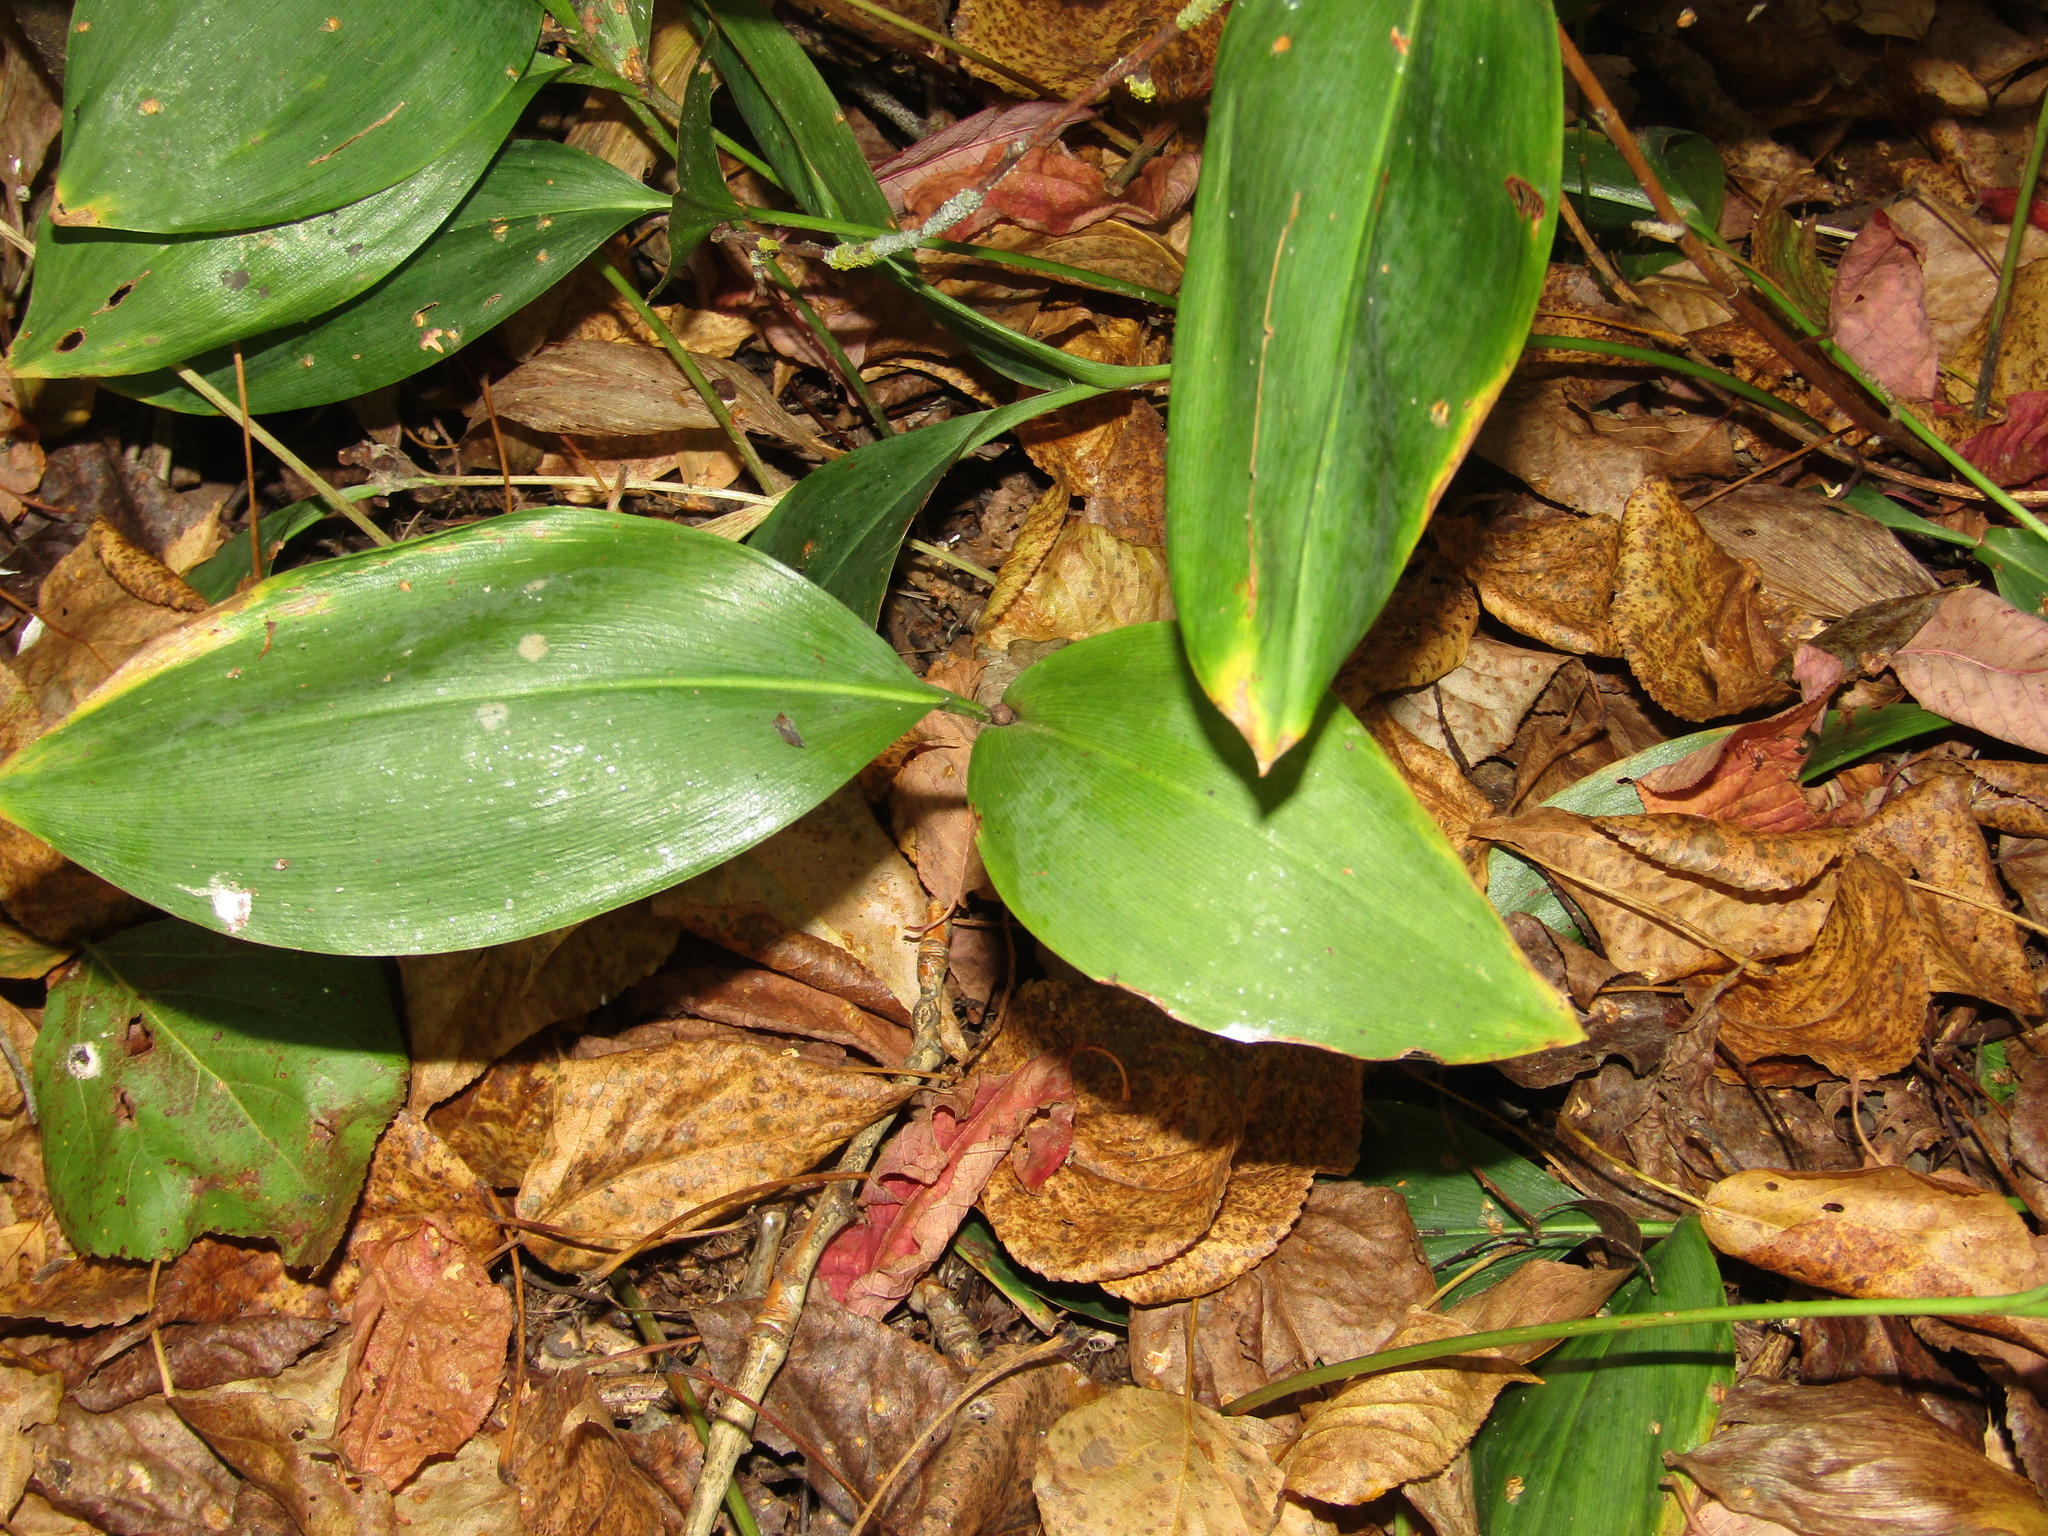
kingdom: Plantae
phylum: Tracheophyta
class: Liliopsida
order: Asparagales
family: Asparagaceae
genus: Convallaria
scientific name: Convallaria majalis
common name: Lily-of-the-valley
